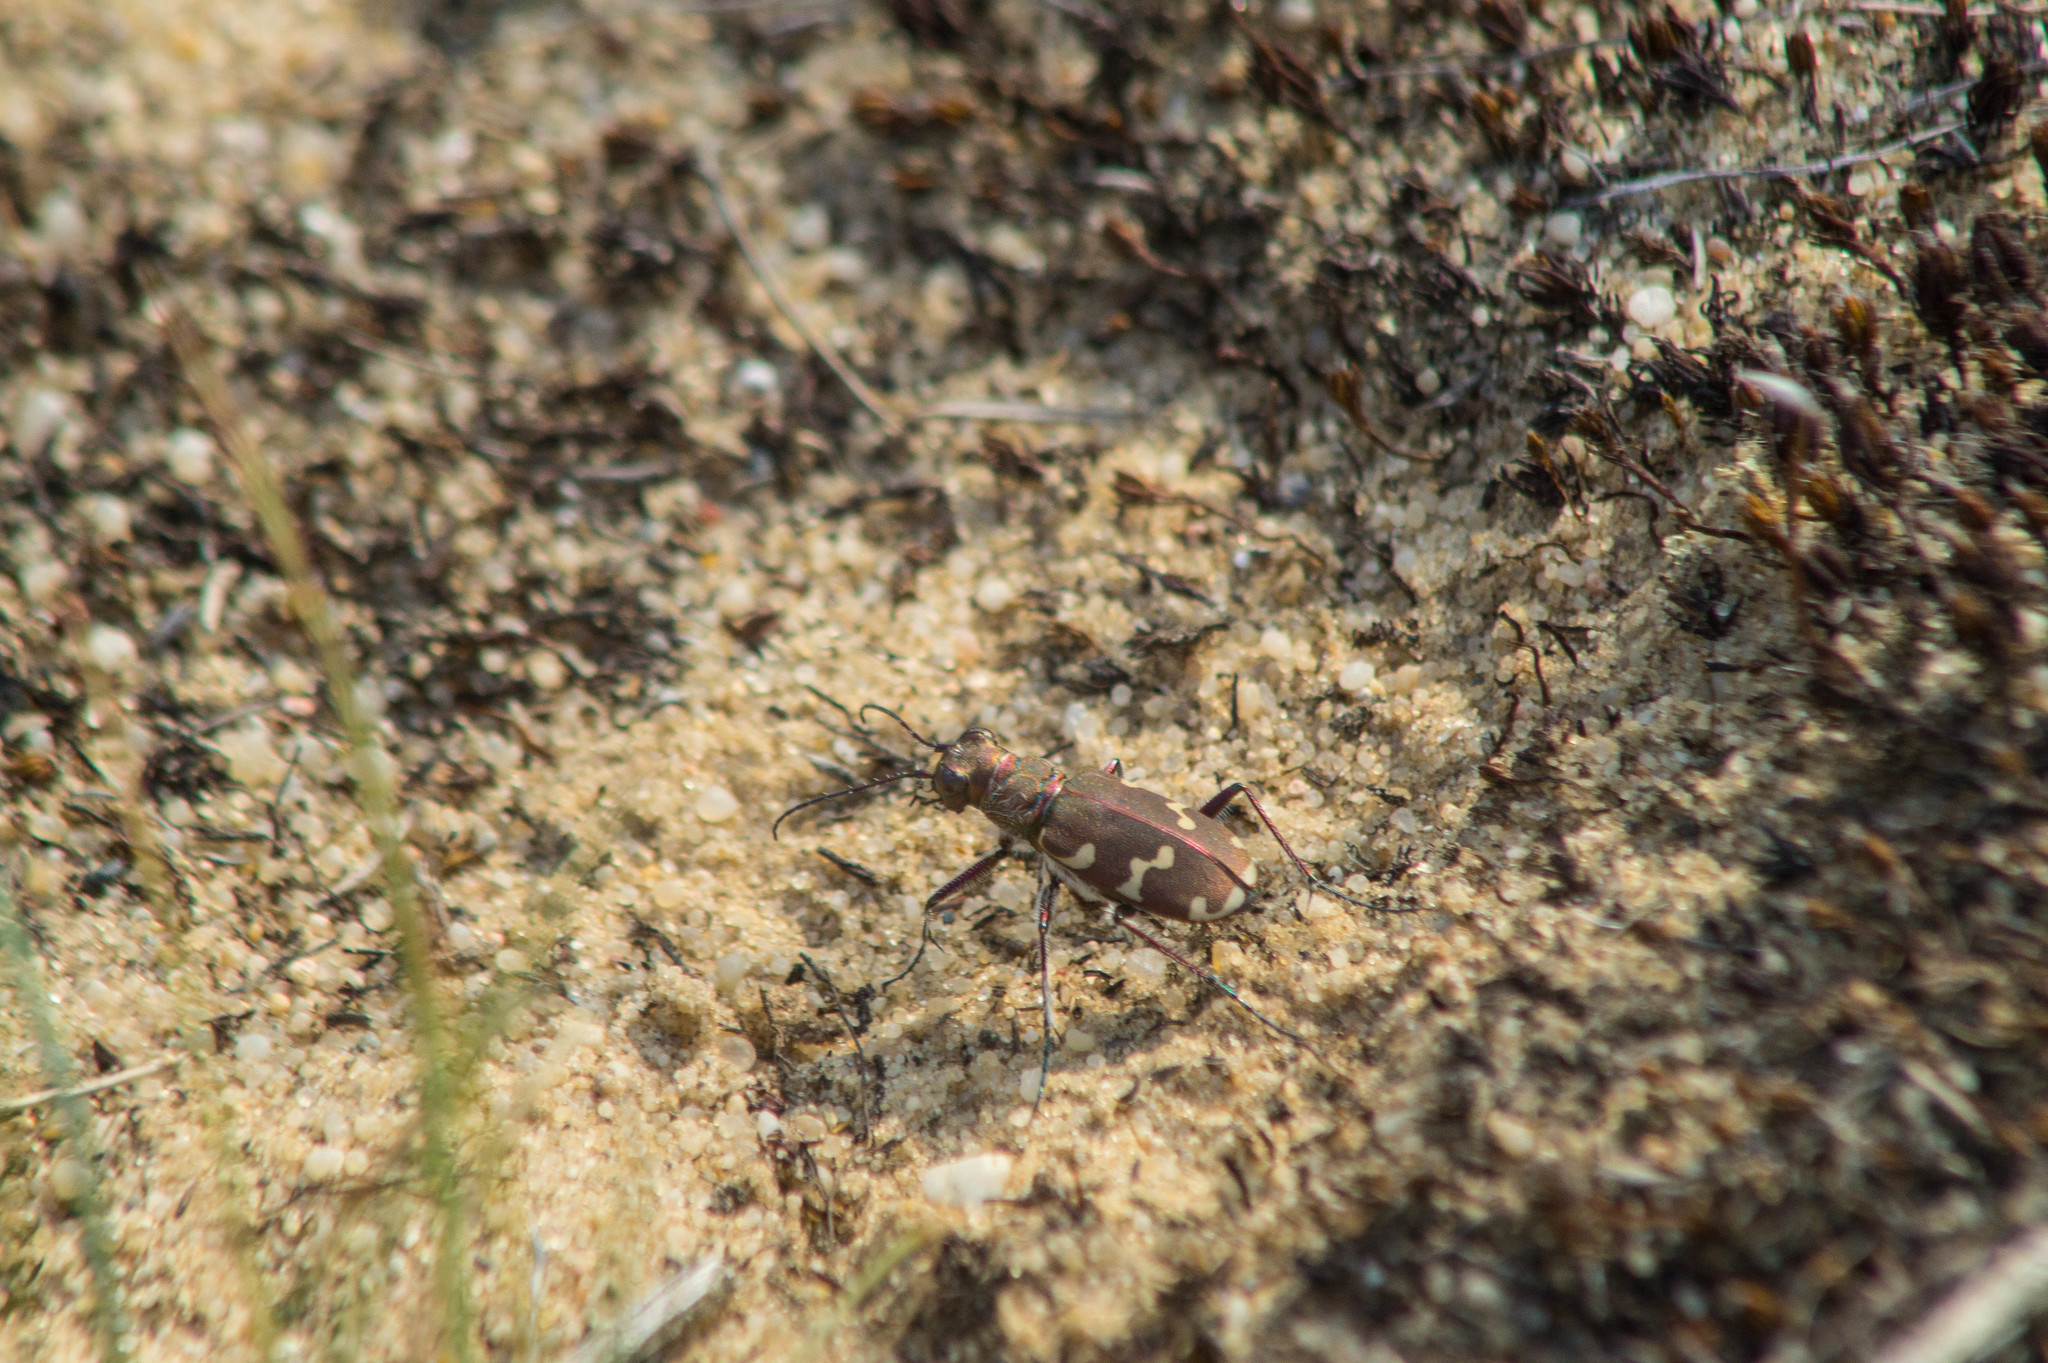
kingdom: Animalia
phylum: Arthropoda
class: Insecta
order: Coleoptera
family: Carabidae
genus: Cicindela
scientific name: Cicindela hybrida
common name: Northern dune tiger beetle
